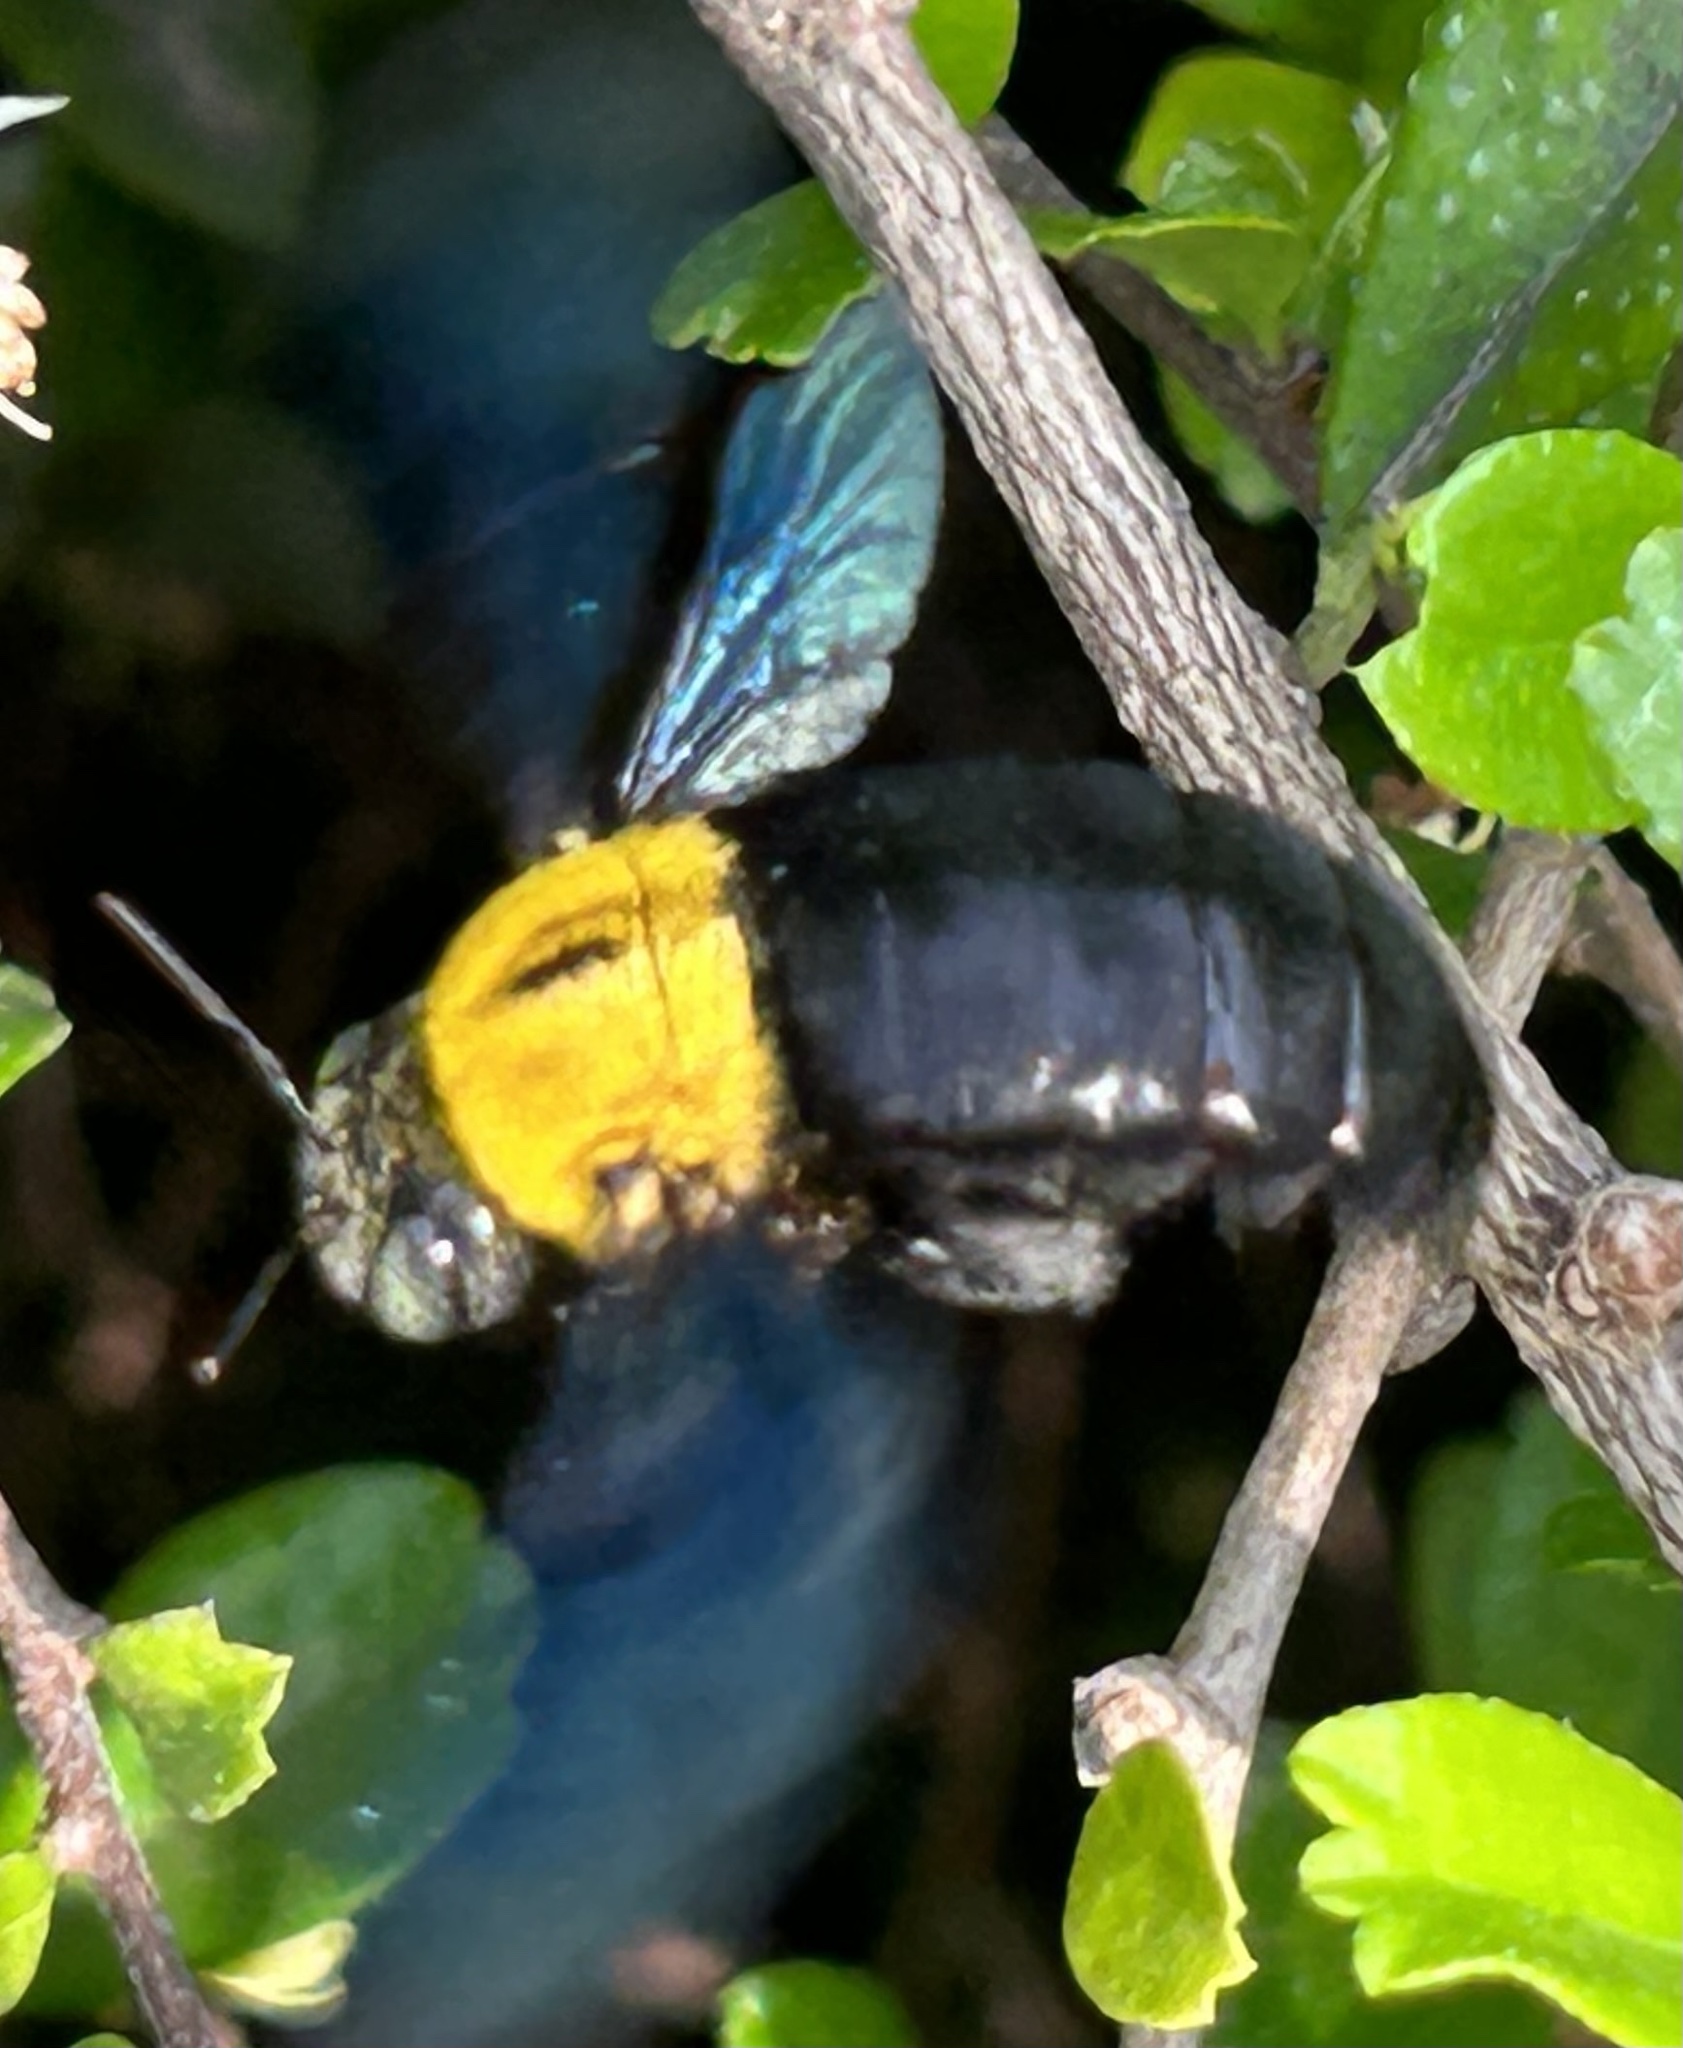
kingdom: Animalia
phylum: Arthropoda
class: Insecta
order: Hymenoptera
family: Apidae
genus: Xylocopa
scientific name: Xylocopa minor
